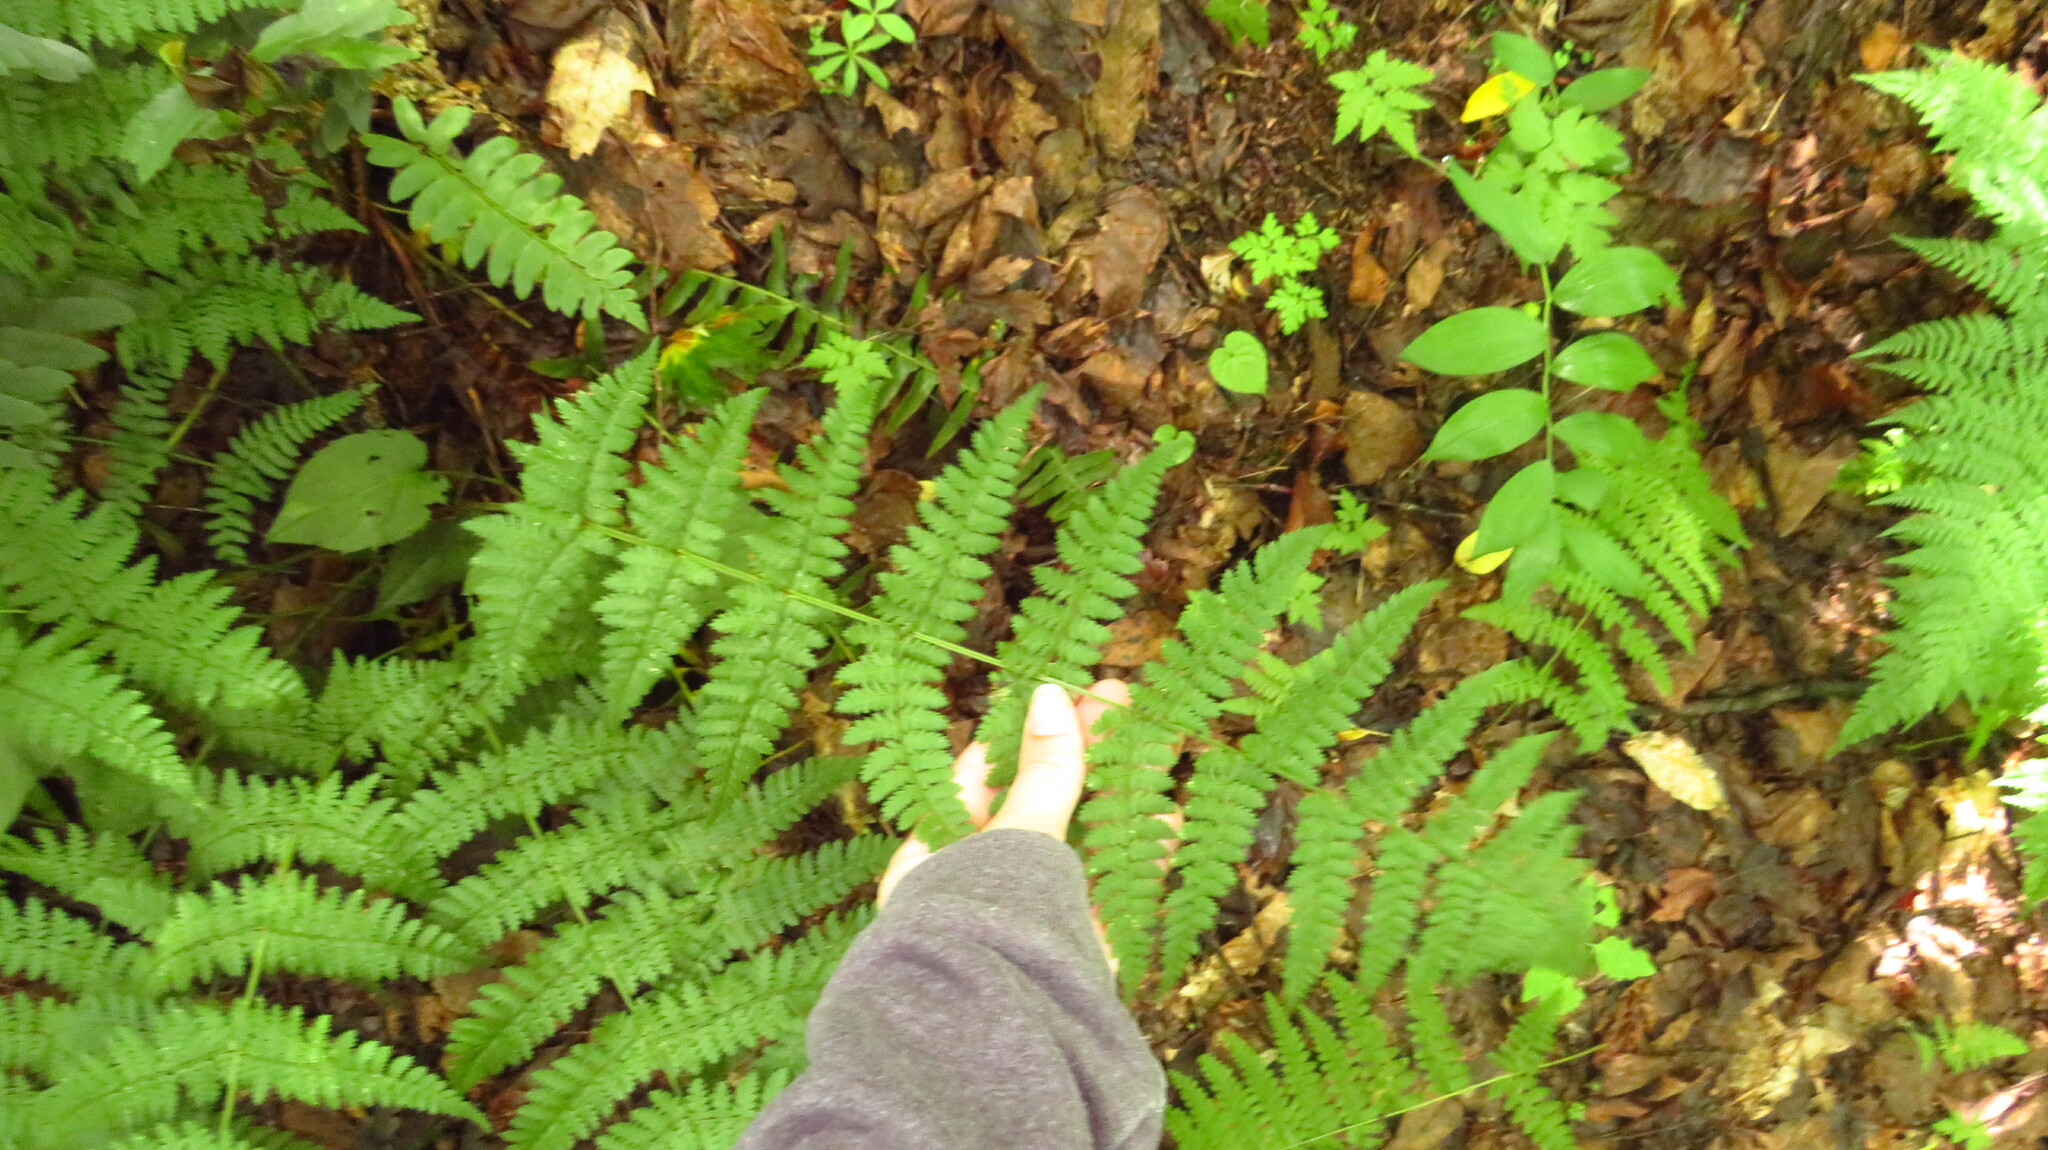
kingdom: Plantae
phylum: Tracheophyta
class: Polypodiopsida
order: Polypodiales
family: Dryopteridaceae
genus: Dryopteris
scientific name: Dryopteris intermedia
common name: Evergreen wood fern
